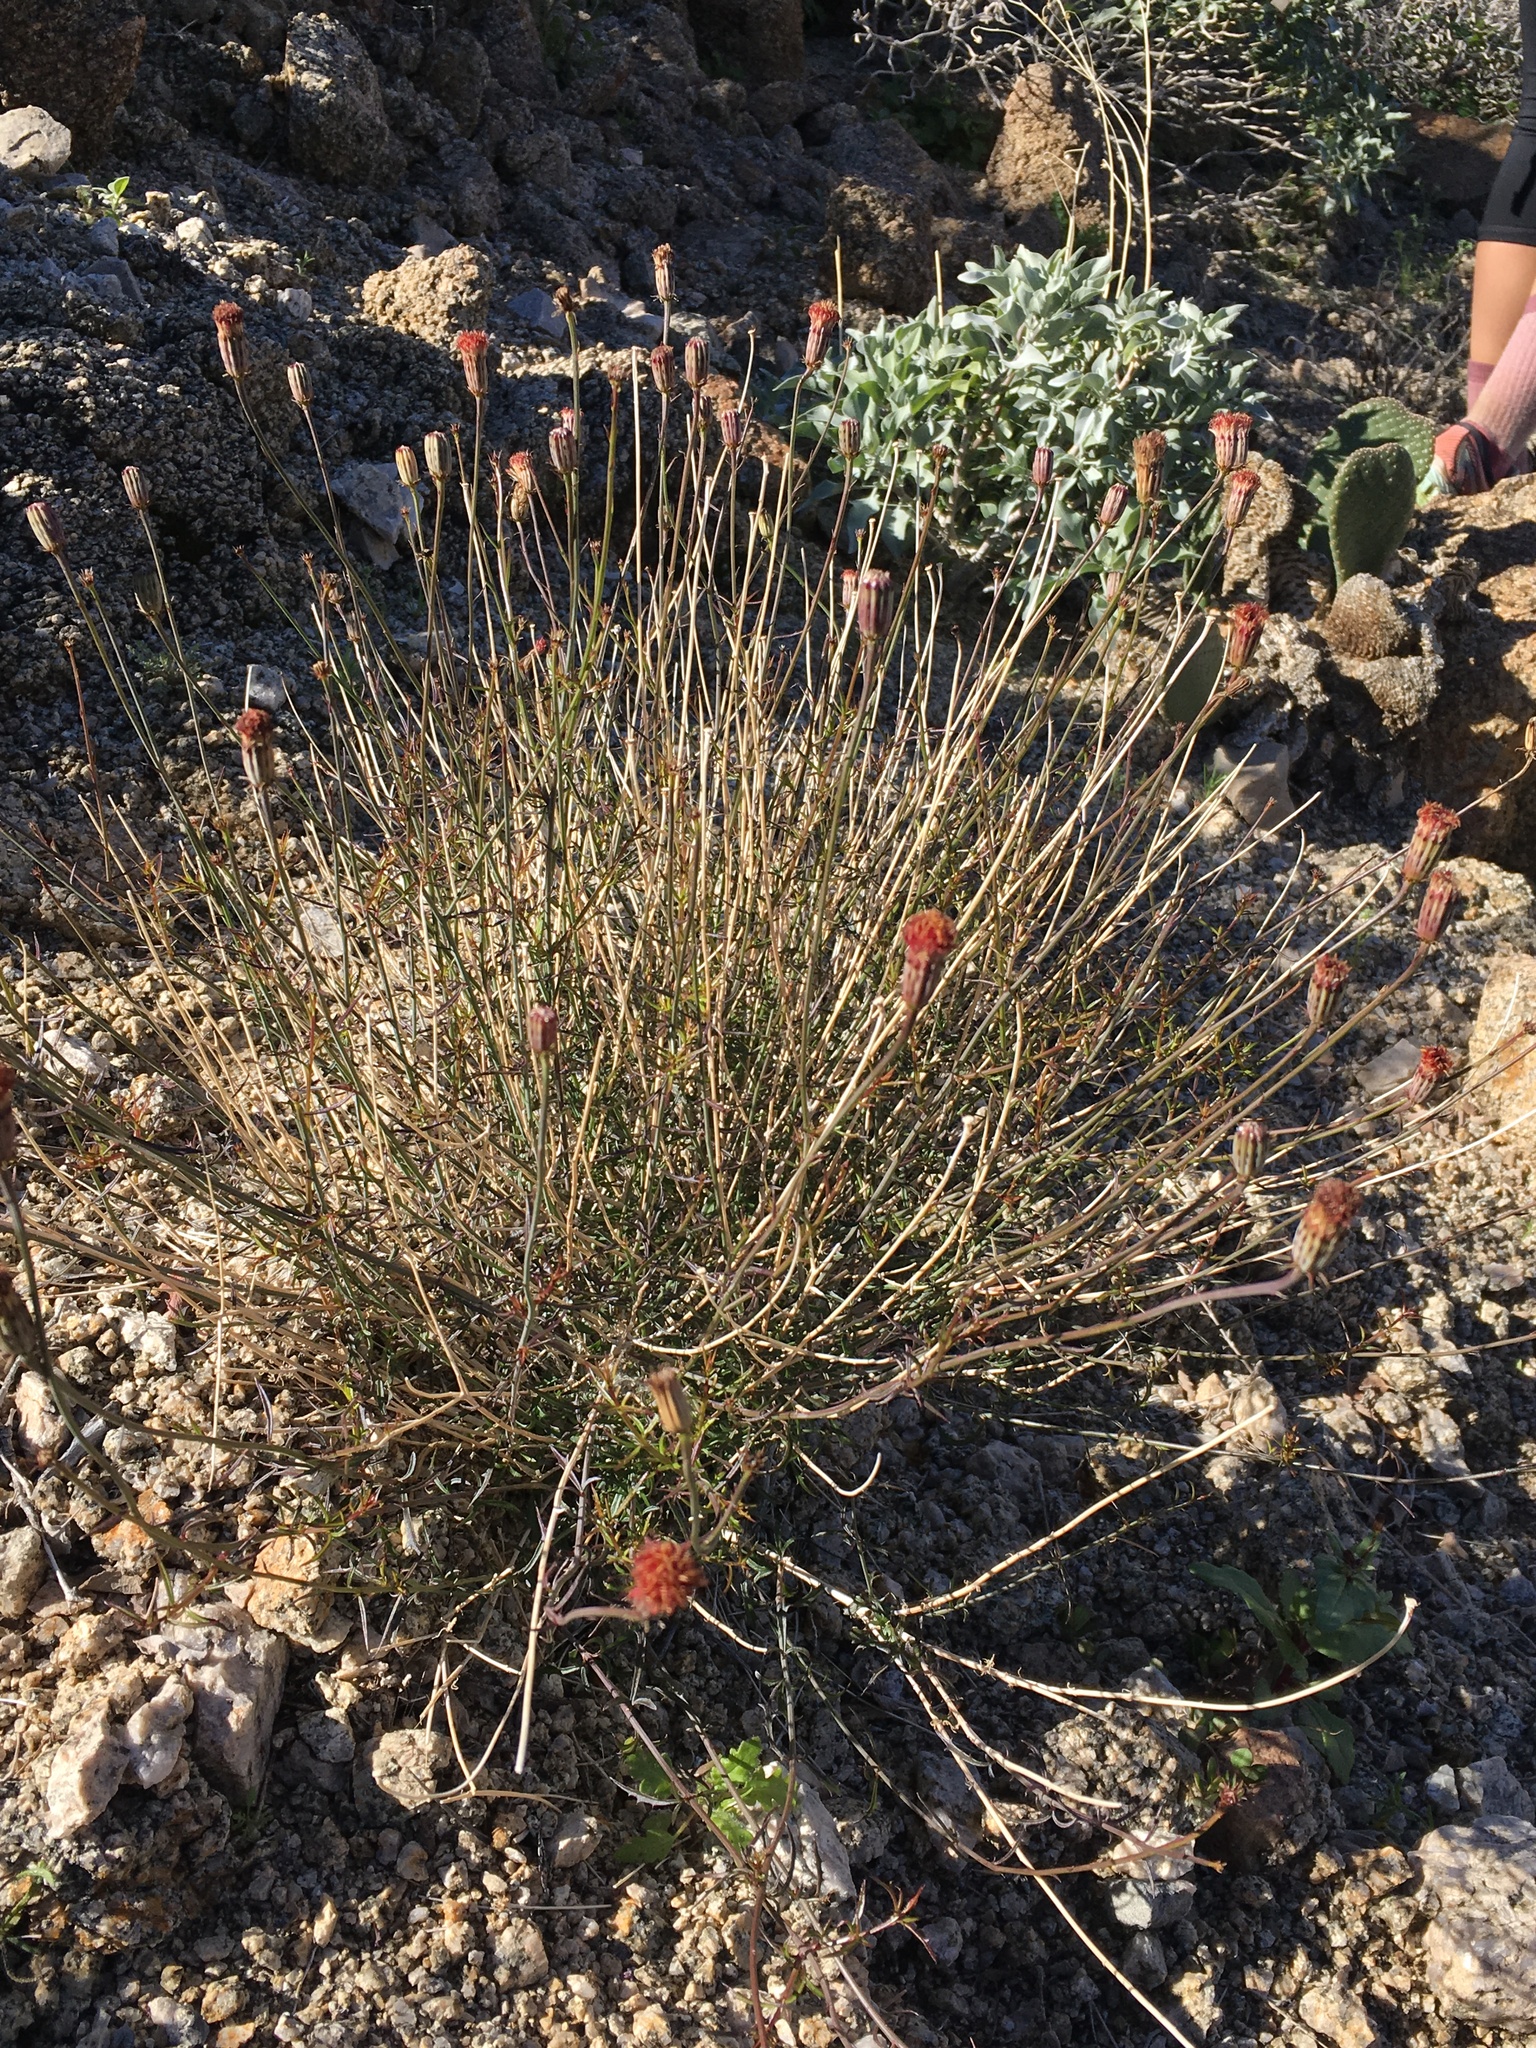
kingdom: Plantae
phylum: Tracheophyta
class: Magnoliopsida
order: Asterales
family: Asteraceae
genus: Adenophyllum
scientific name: Adenophyllum porophylloides
